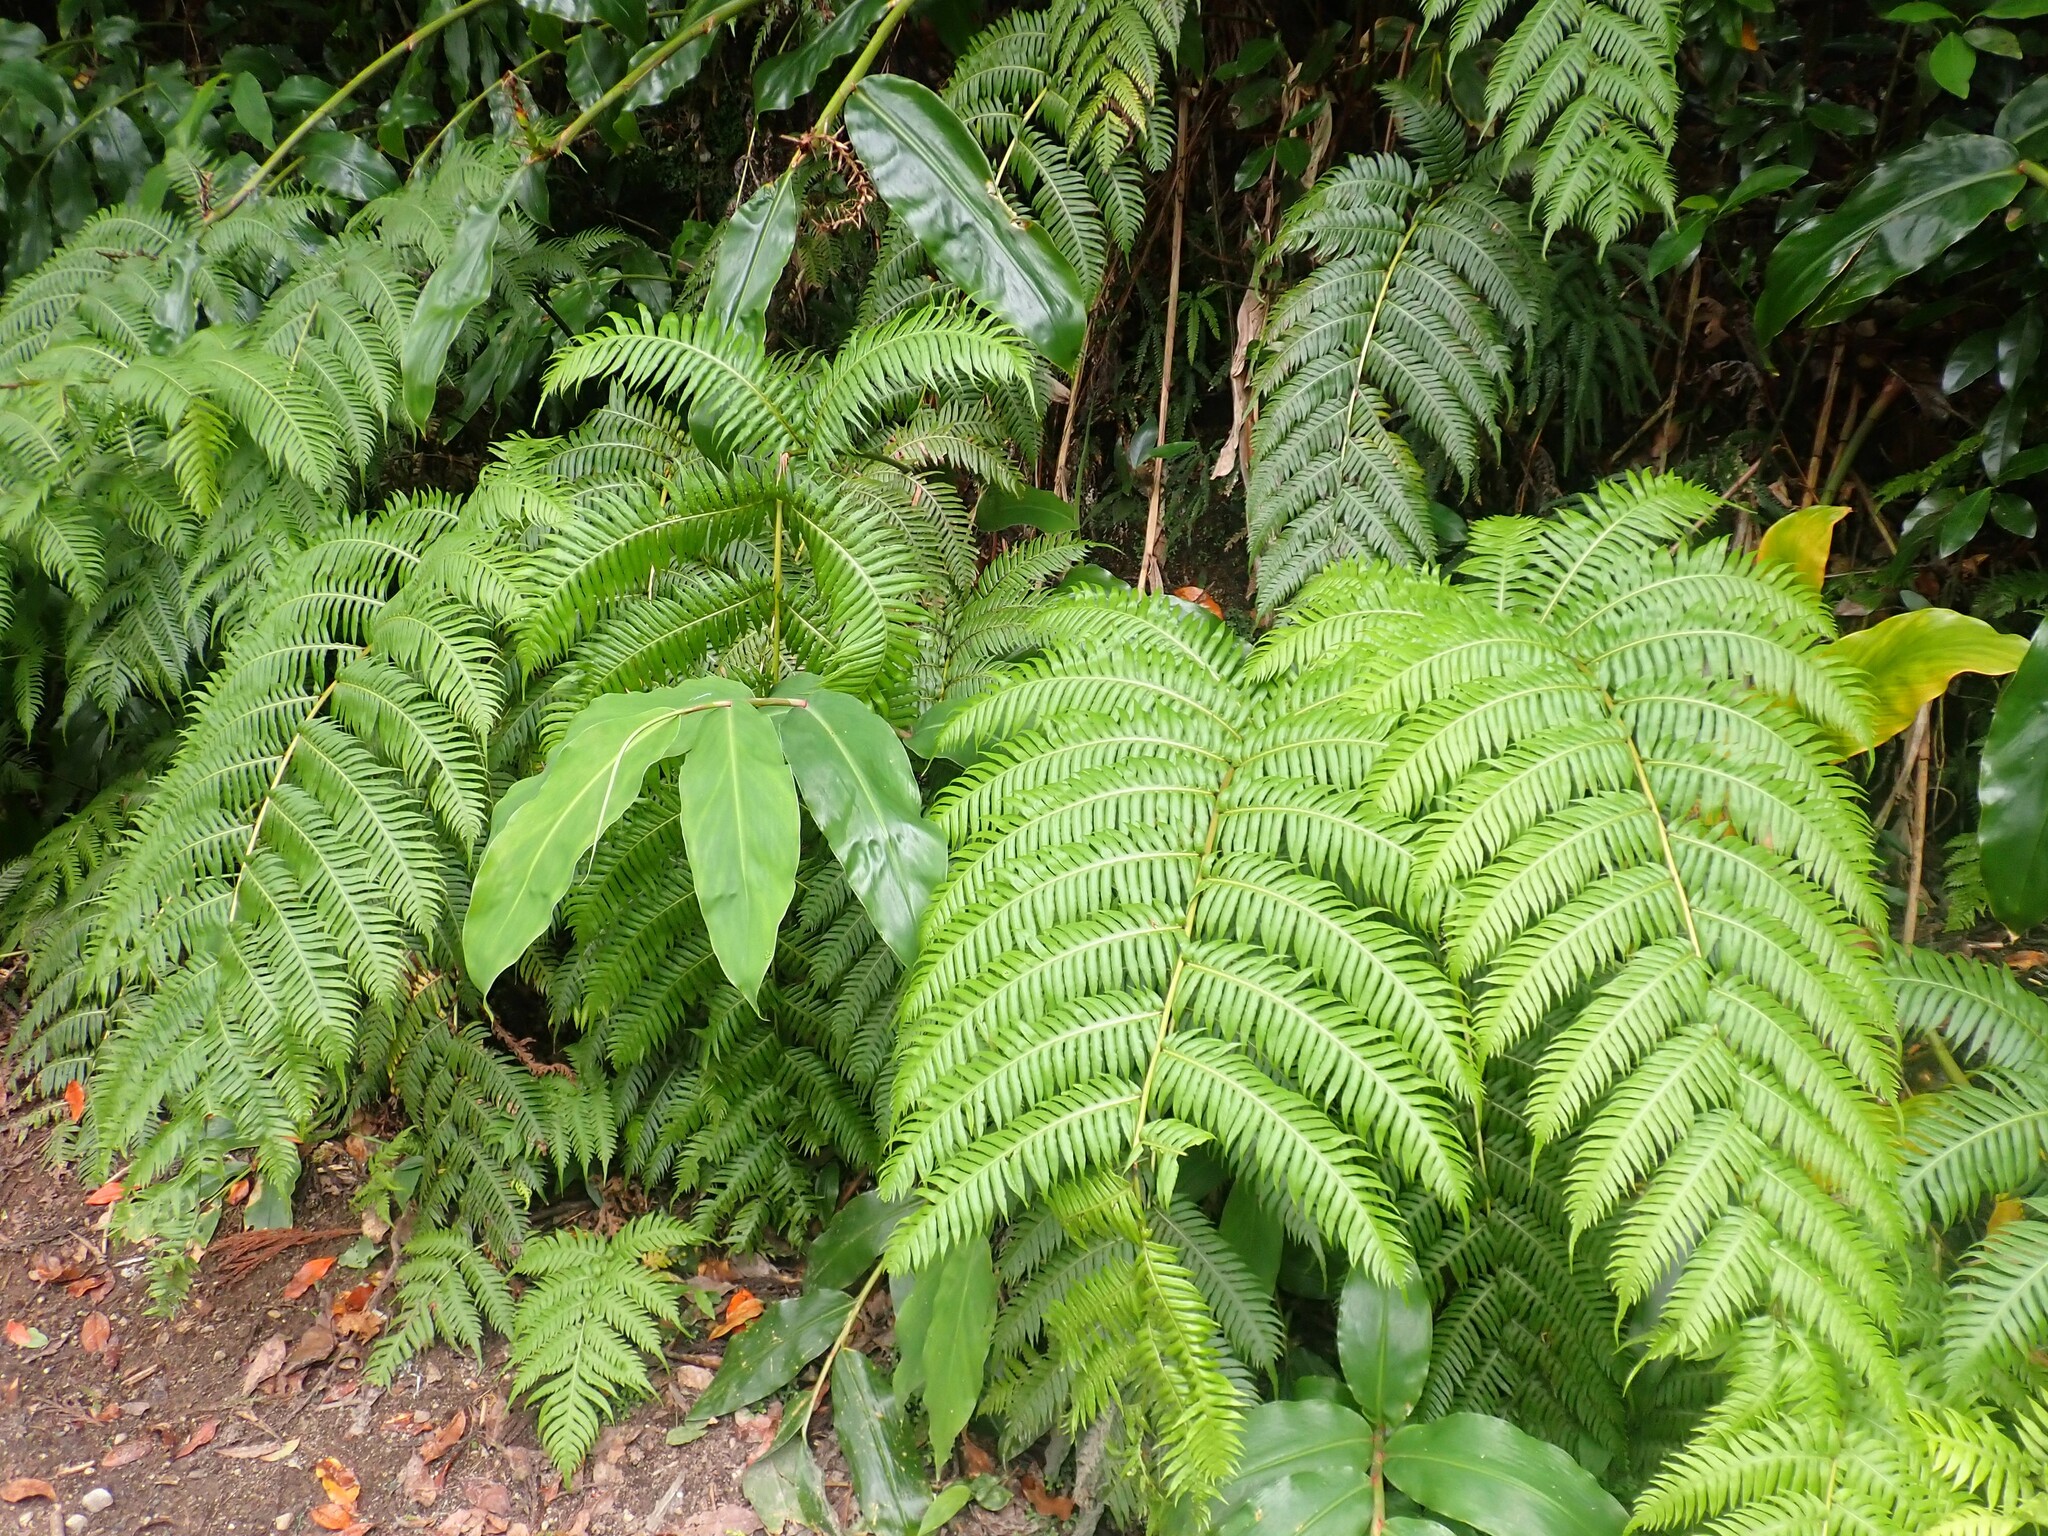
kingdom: Plantae
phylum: Tracheophyta
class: Polypodiopsida
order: Polypodiales
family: Blechnaceae
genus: Woodwardia
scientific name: Woodwardia radicans
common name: Rooting chainfern
